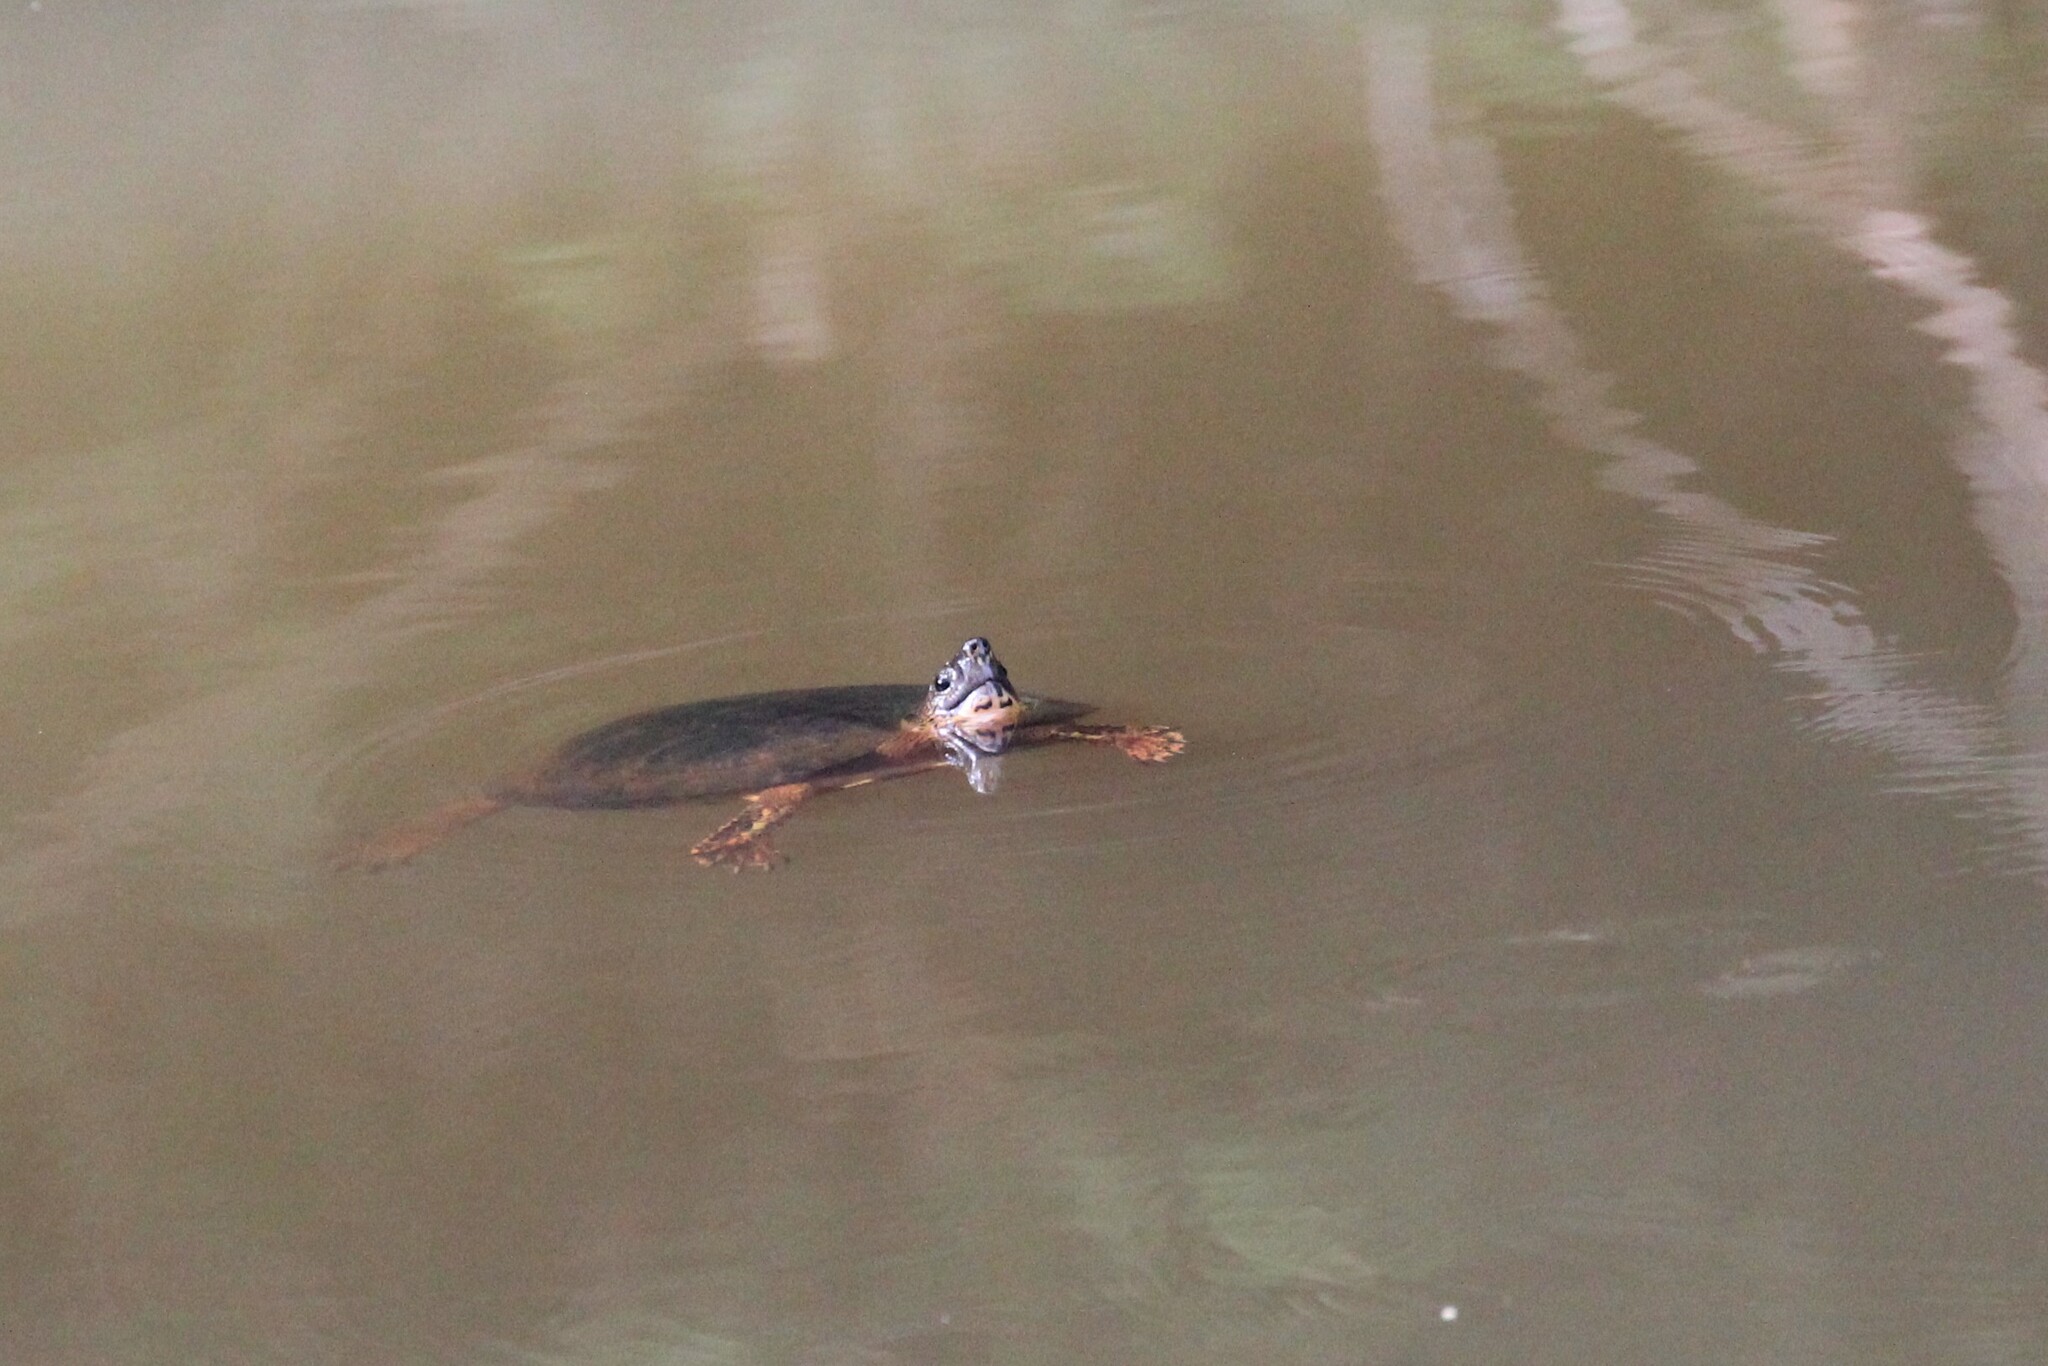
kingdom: Animalia
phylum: Chordata
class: Testudines
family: Geoemydidae
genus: Rhinoclemmys
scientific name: Rhinoclemmys funerea
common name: Black wood turtle
